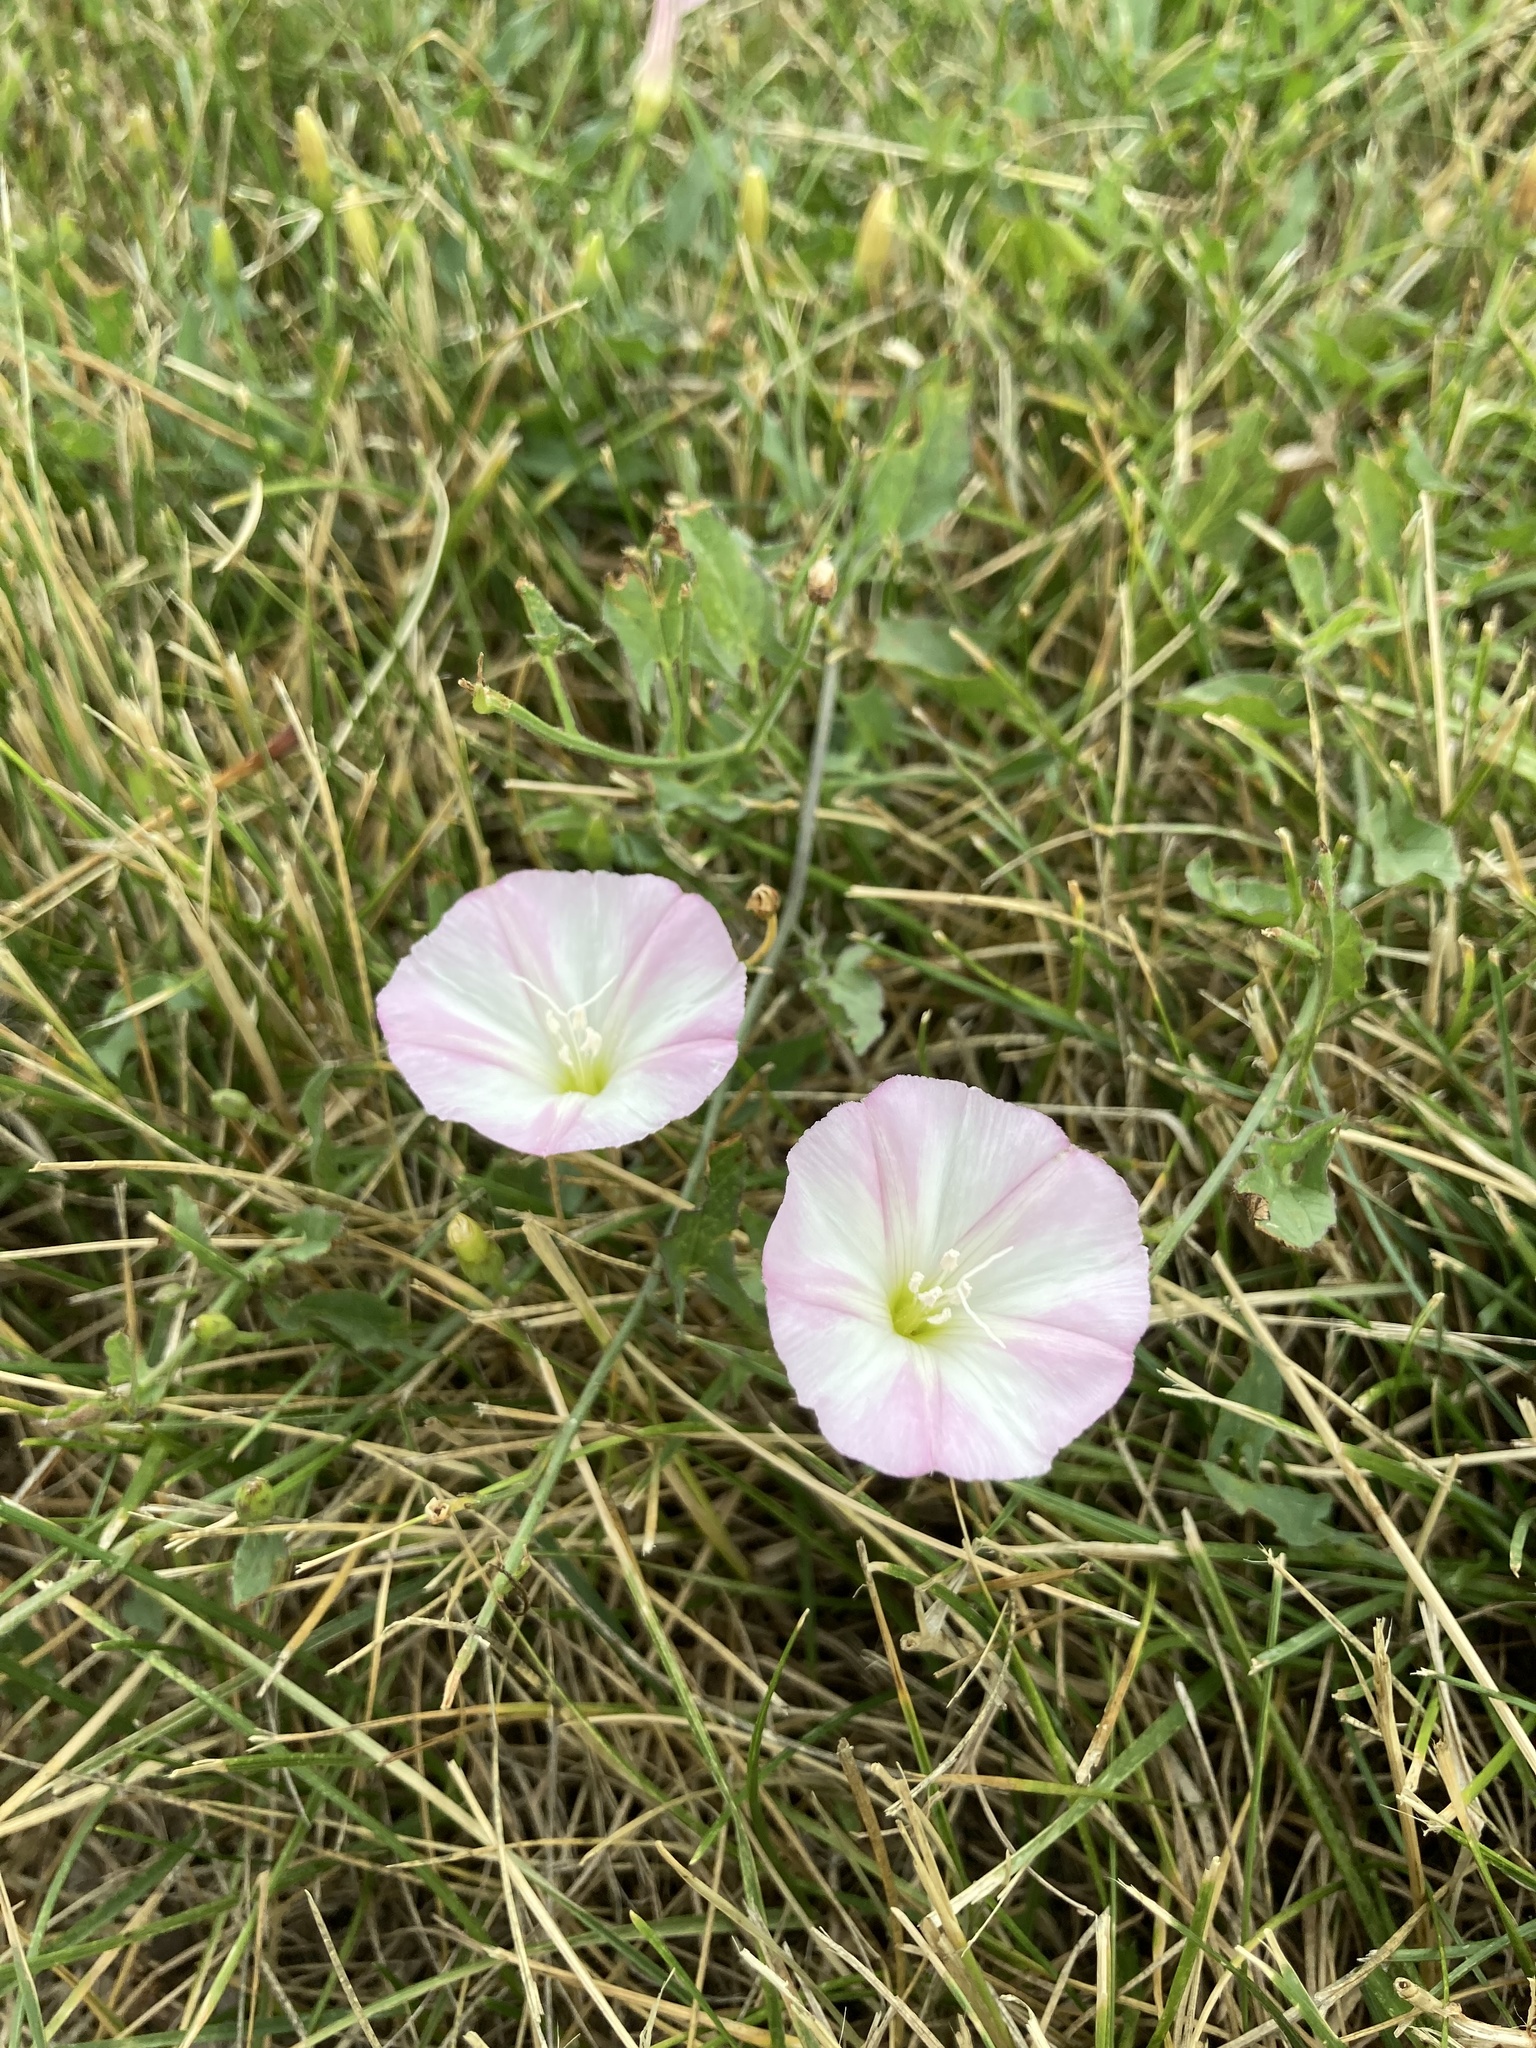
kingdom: Plantae
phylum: Tracheophyta
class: Magnoliopsida
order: Solanales
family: Convolvulaceae
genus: Convolvulus
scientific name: Convolvulus arvensis
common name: Field bindweed
